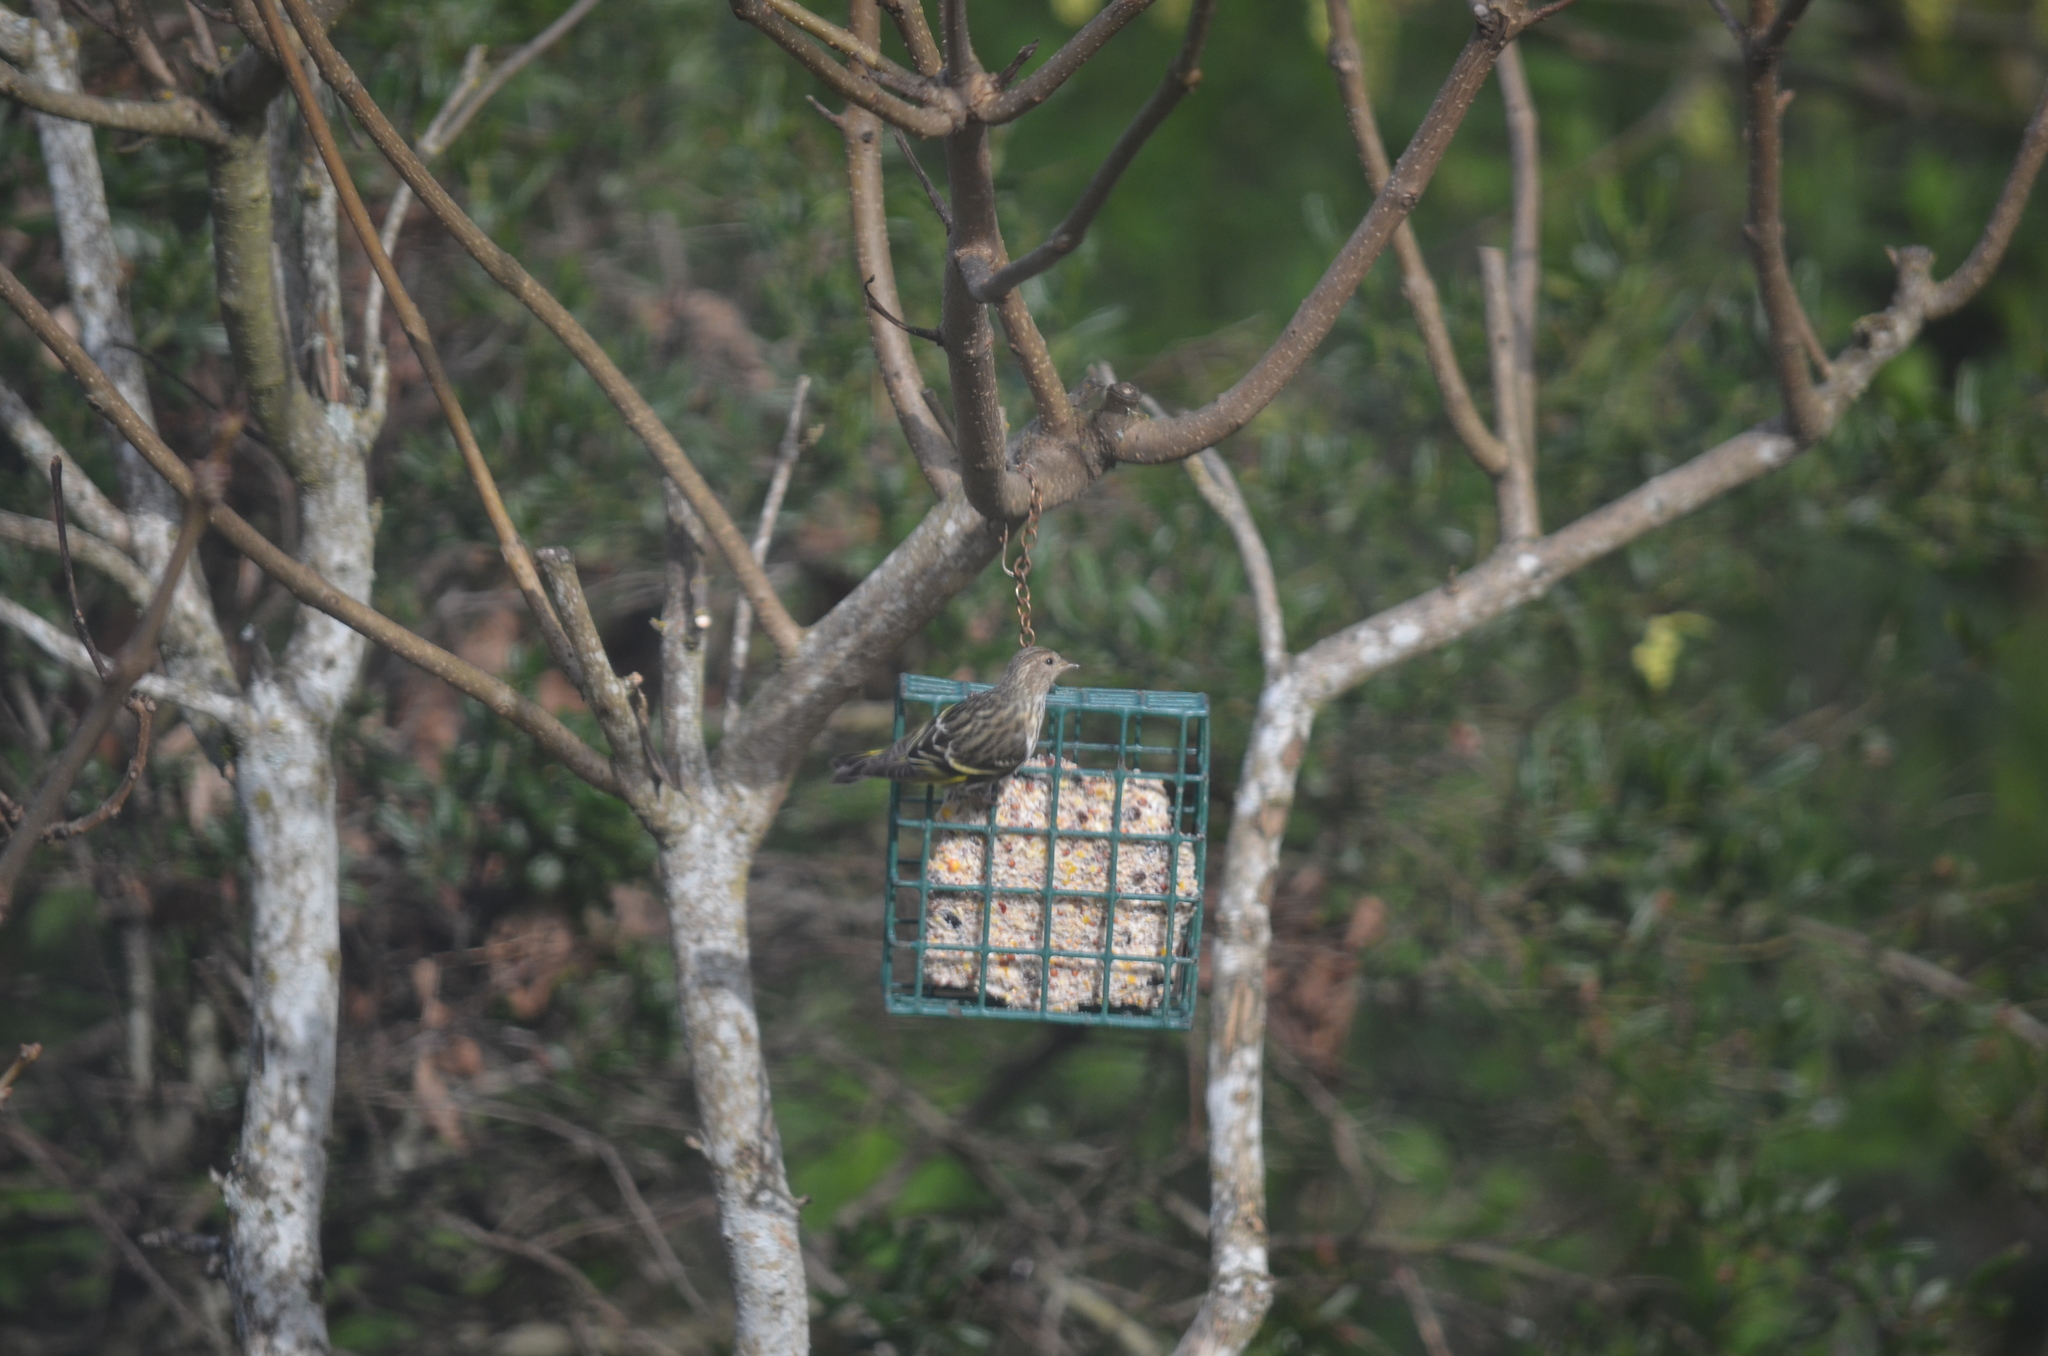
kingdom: Animalia
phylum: Chordata
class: Aves
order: Passeriformes
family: Fringillidae
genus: Spinus
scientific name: Spinus pinus
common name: Pine siskin
